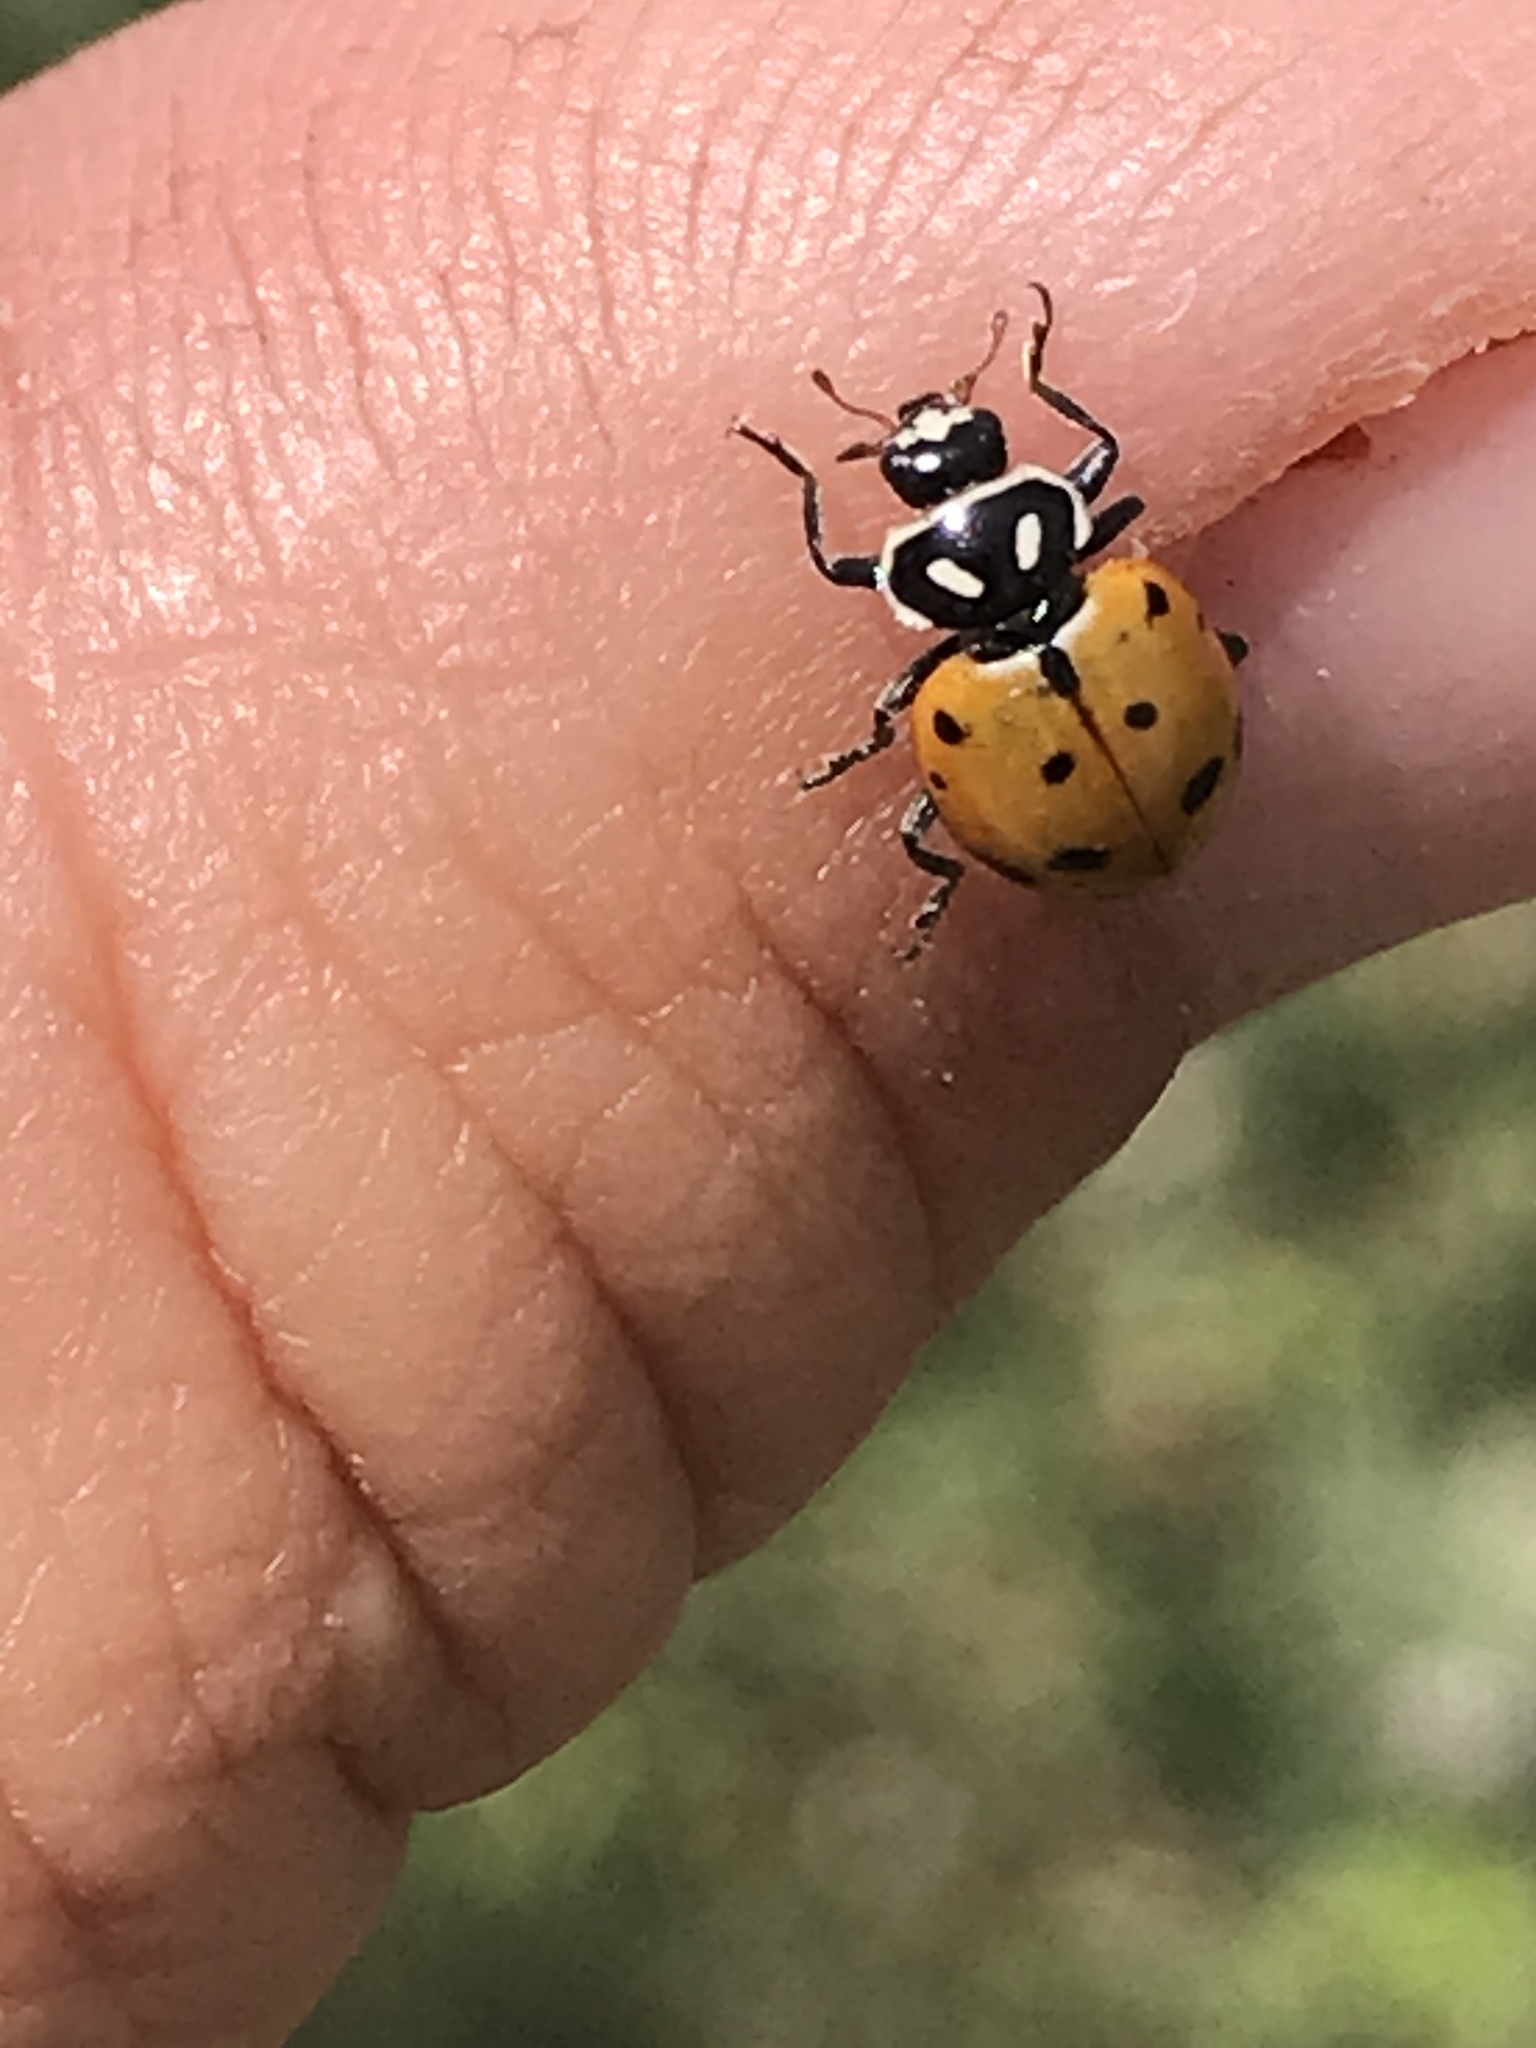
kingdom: Animalia
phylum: Arthropoda
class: Insecta
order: Coleoptera
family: Coccinellidae
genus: Hippodamia
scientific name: Hippodamia convergens
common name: Convergent lady beetle
